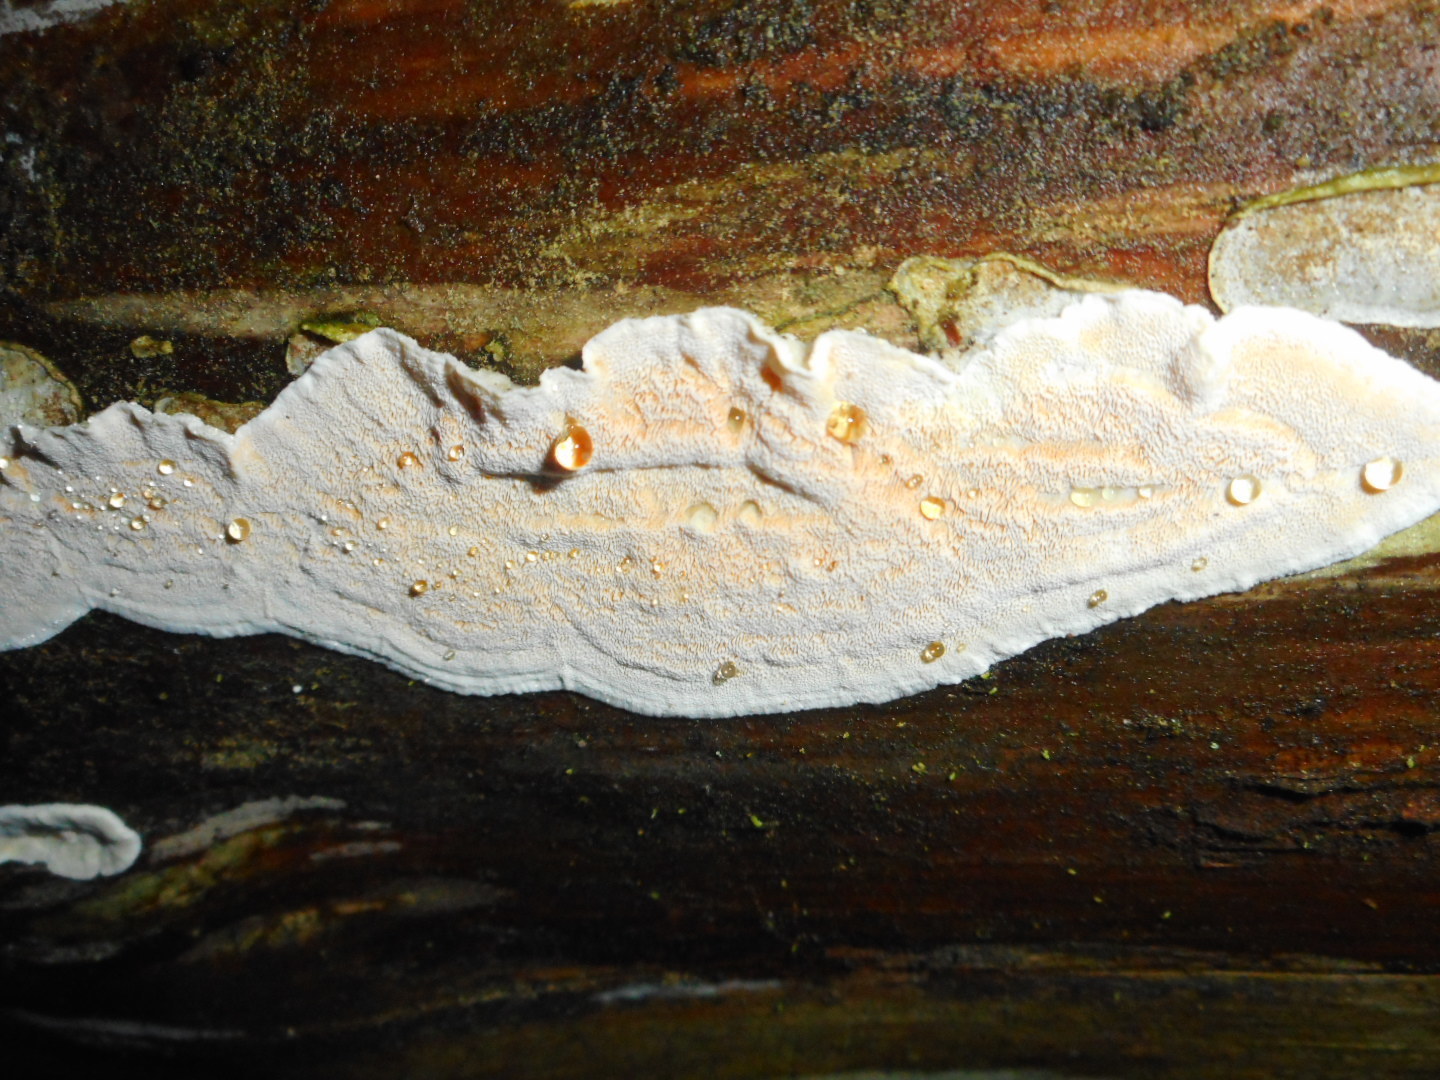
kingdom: Fungi
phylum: Basidiomycota
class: Agaricomycetes
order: Polyporales
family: Incrustoporiaceae
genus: Skeletocutis
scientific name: Skeletocutis amorpha
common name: Rusty crust
